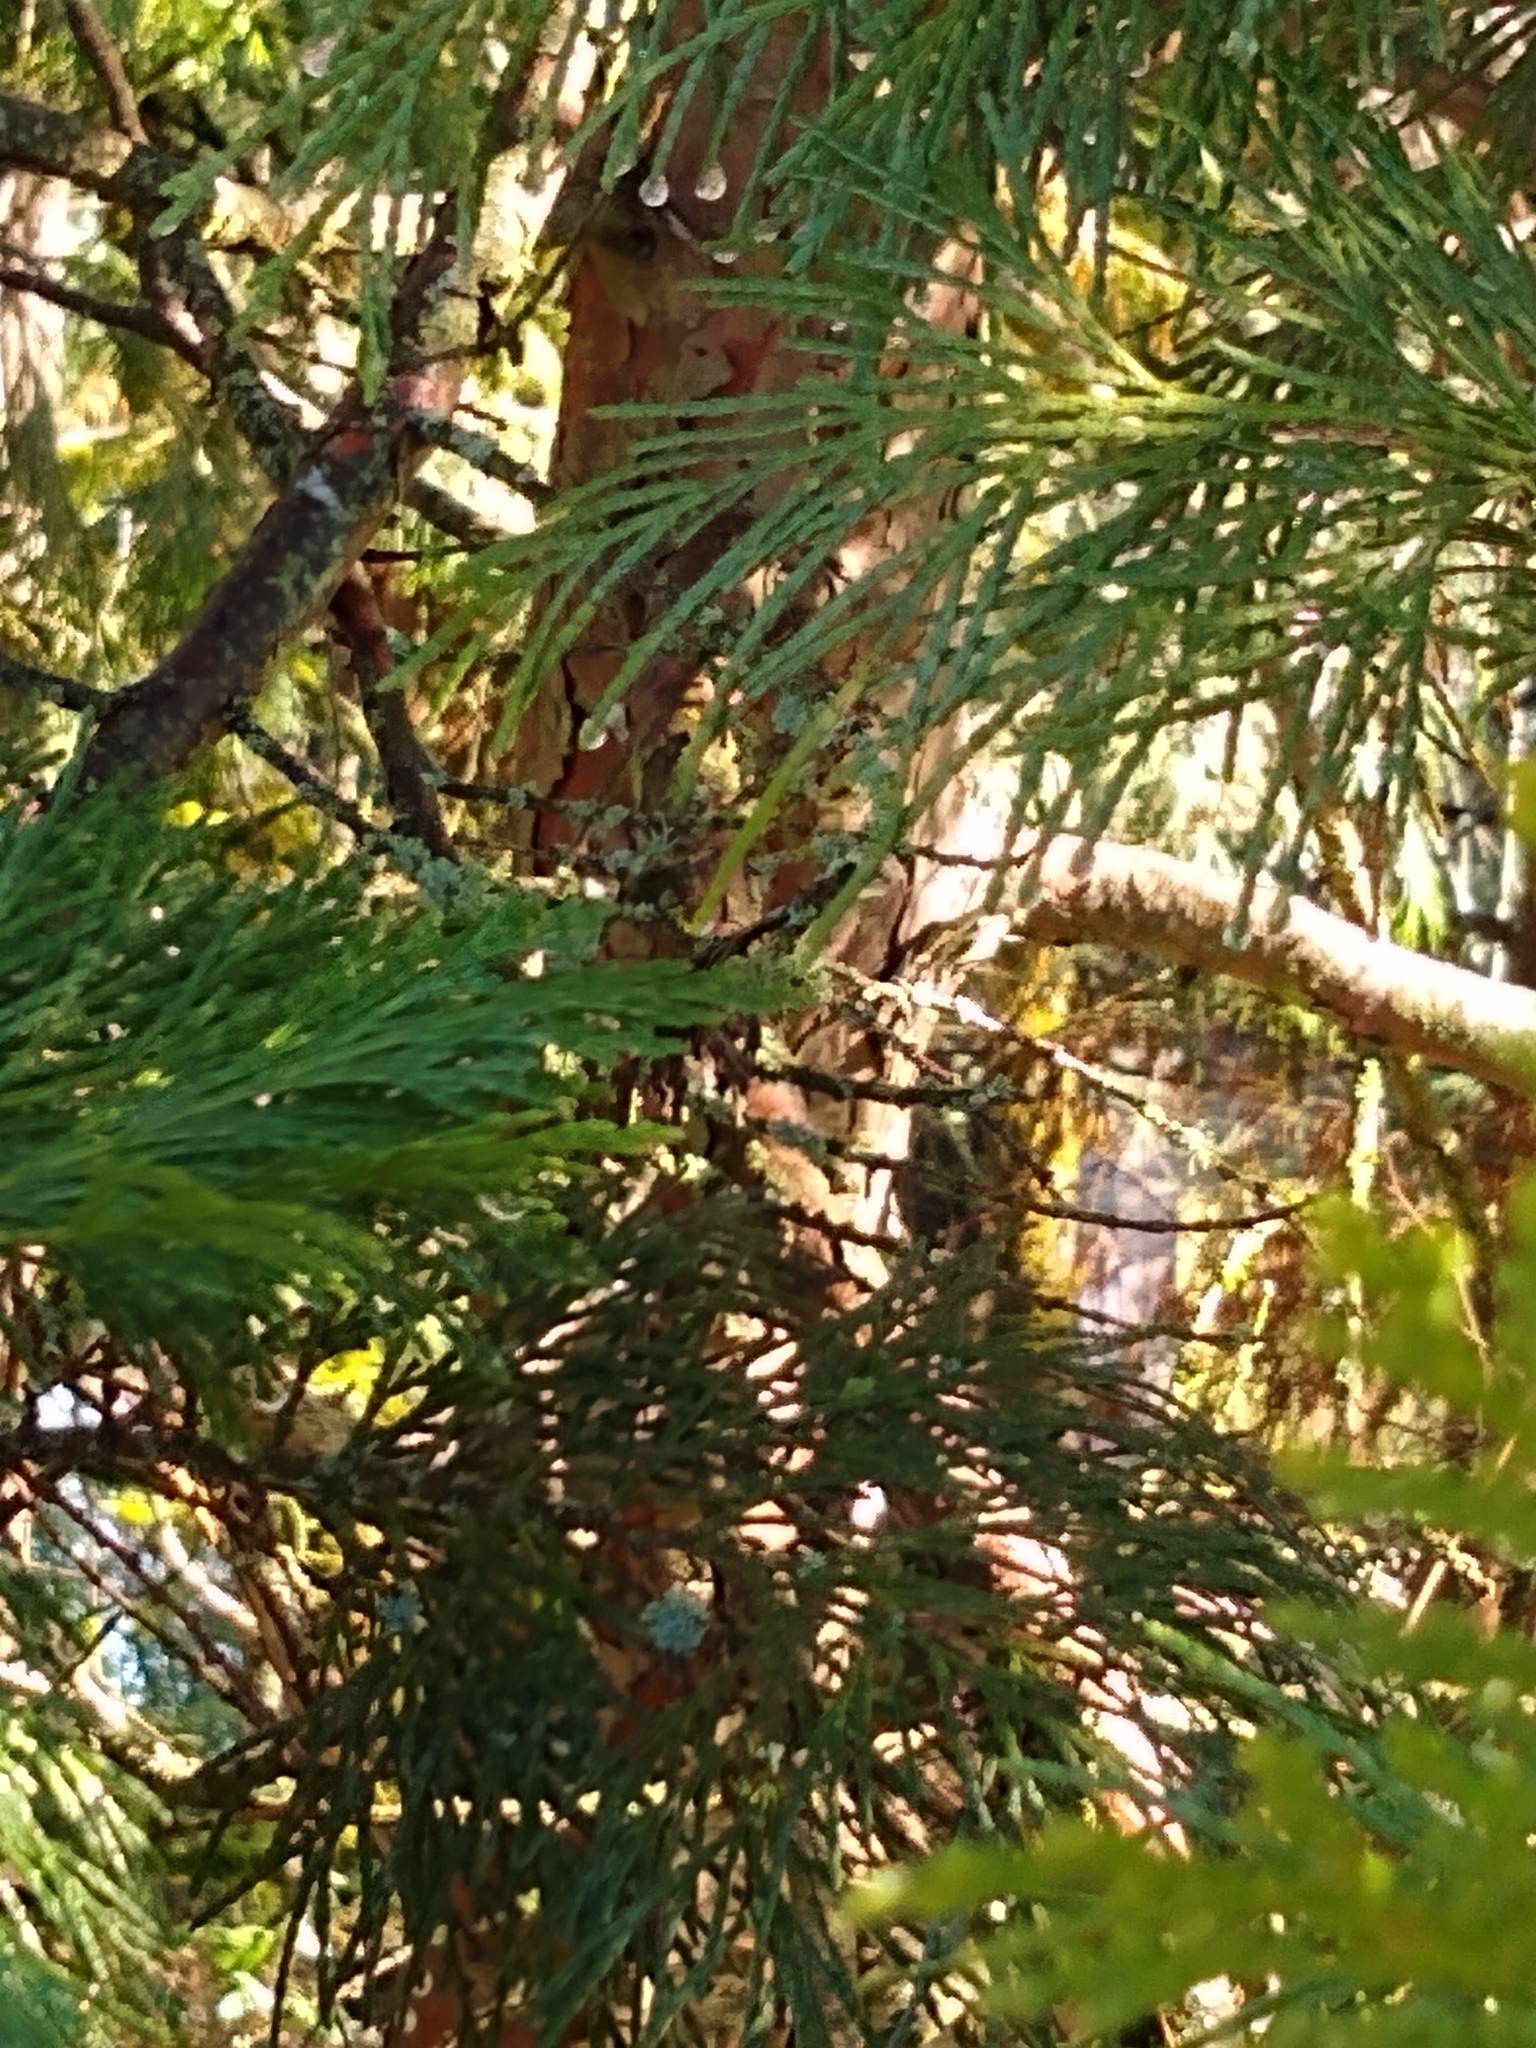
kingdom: Plantae
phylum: Tracheophyta
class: Pinopsida
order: Pinales
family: Cupressaceae
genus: Calocedrus
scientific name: Calocedrus decurrens
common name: Californian incense-cedar
